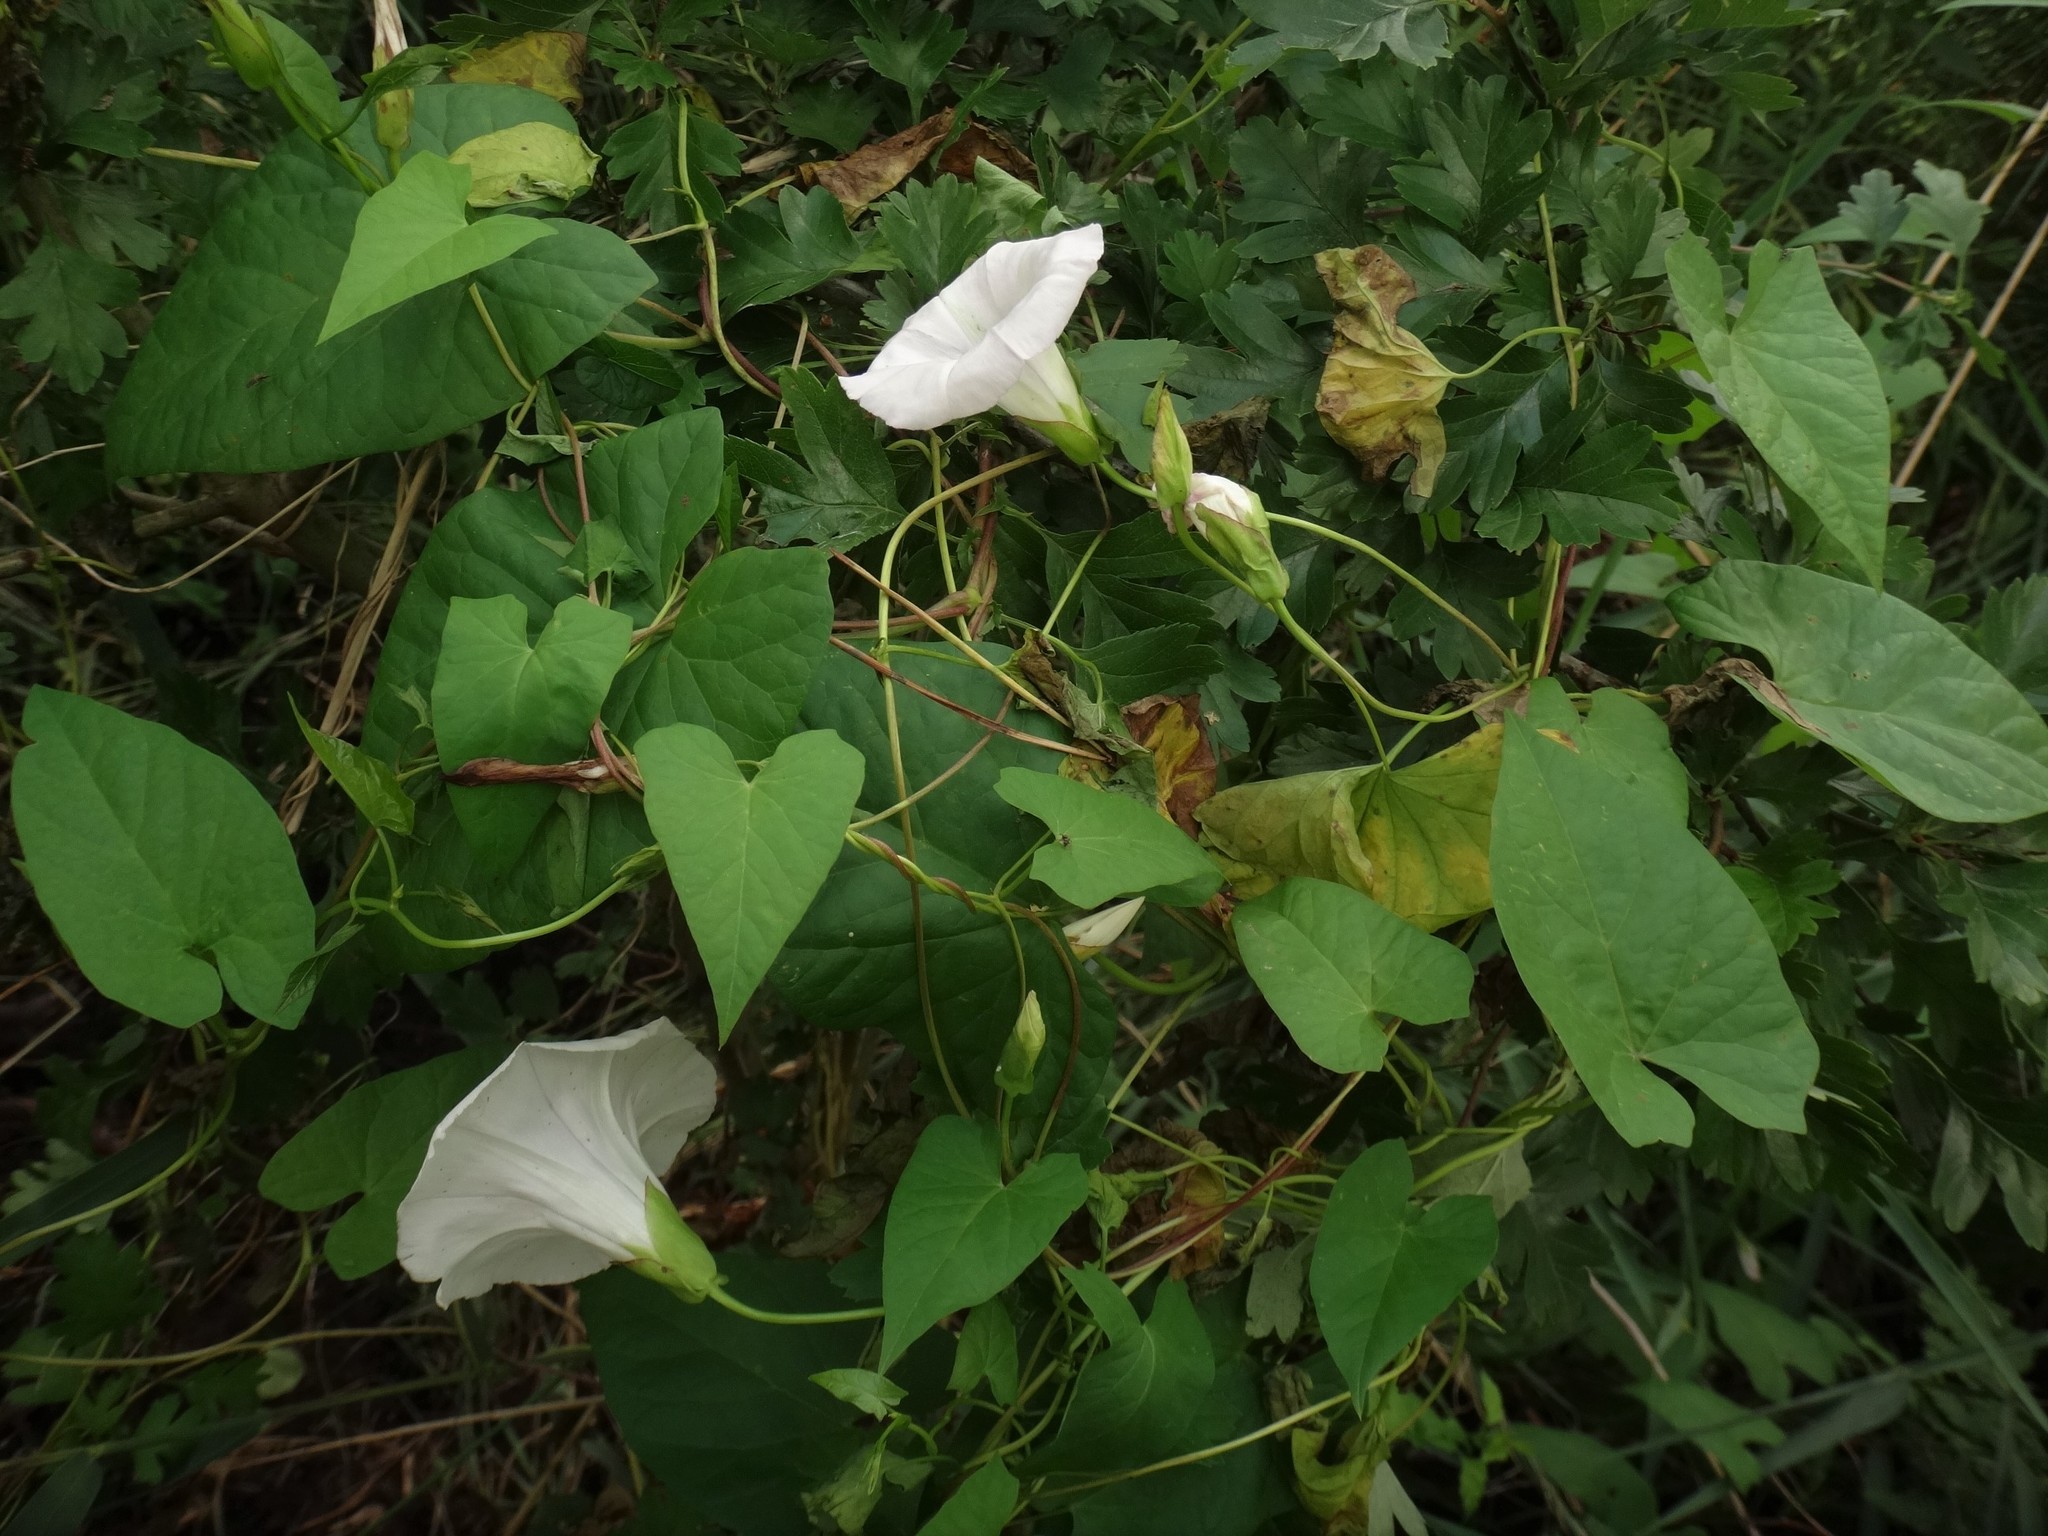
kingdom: Plantae
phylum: Tracheophyta
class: Magnoliopsida
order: Solanales
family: Convolvulaceae
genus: Calystegia
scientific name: Calystegia sepium
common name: Hedge bindweed
